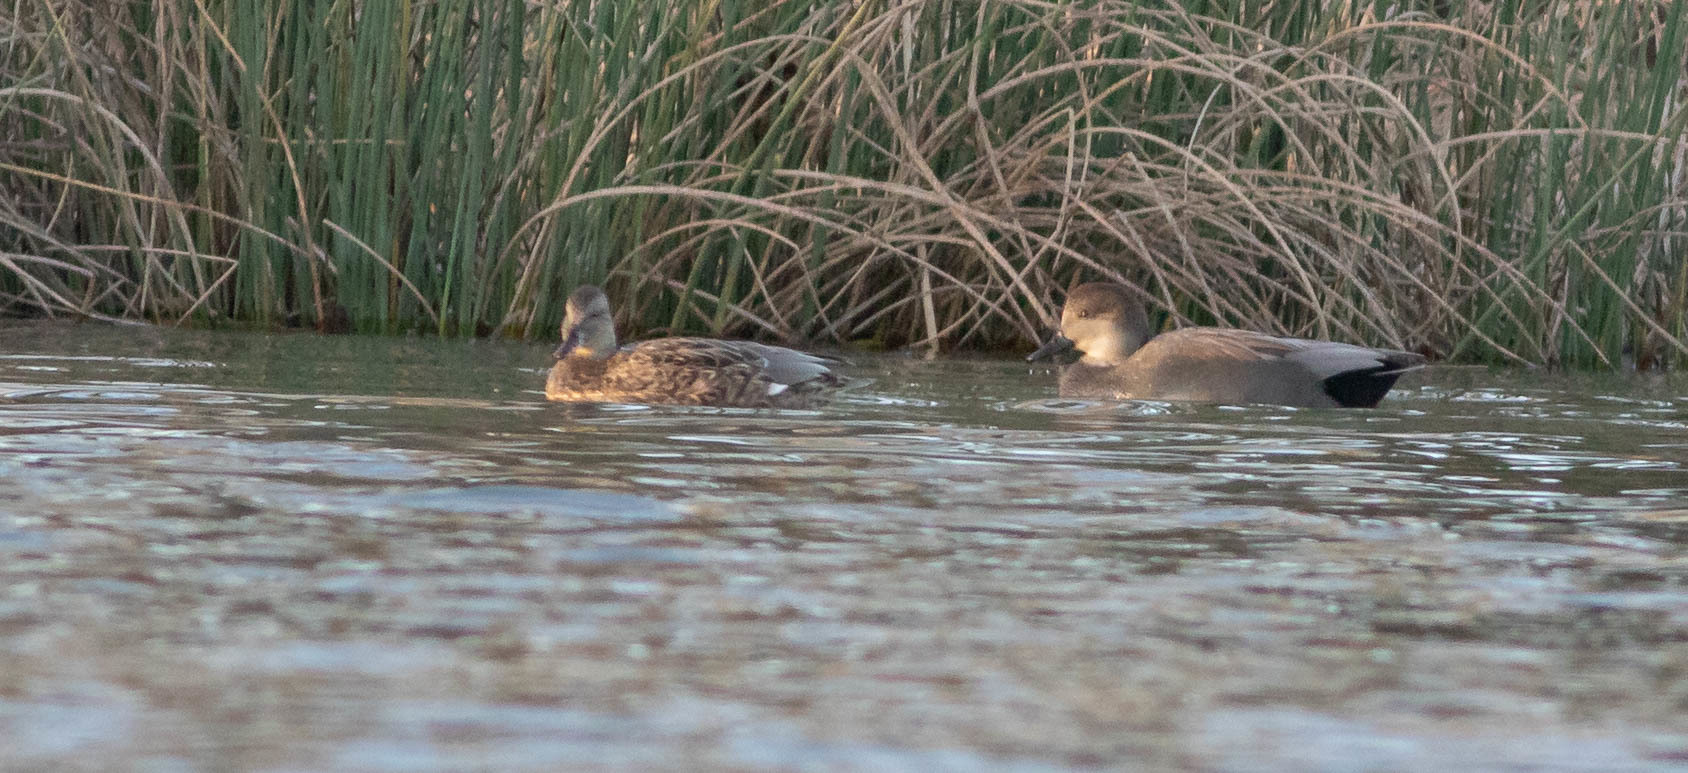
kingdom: Animalia
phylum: Chordata
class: Aves
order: Anseriformes
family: Anatidae
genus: Mareca
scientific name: Mareca strepera
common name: Gadwall
